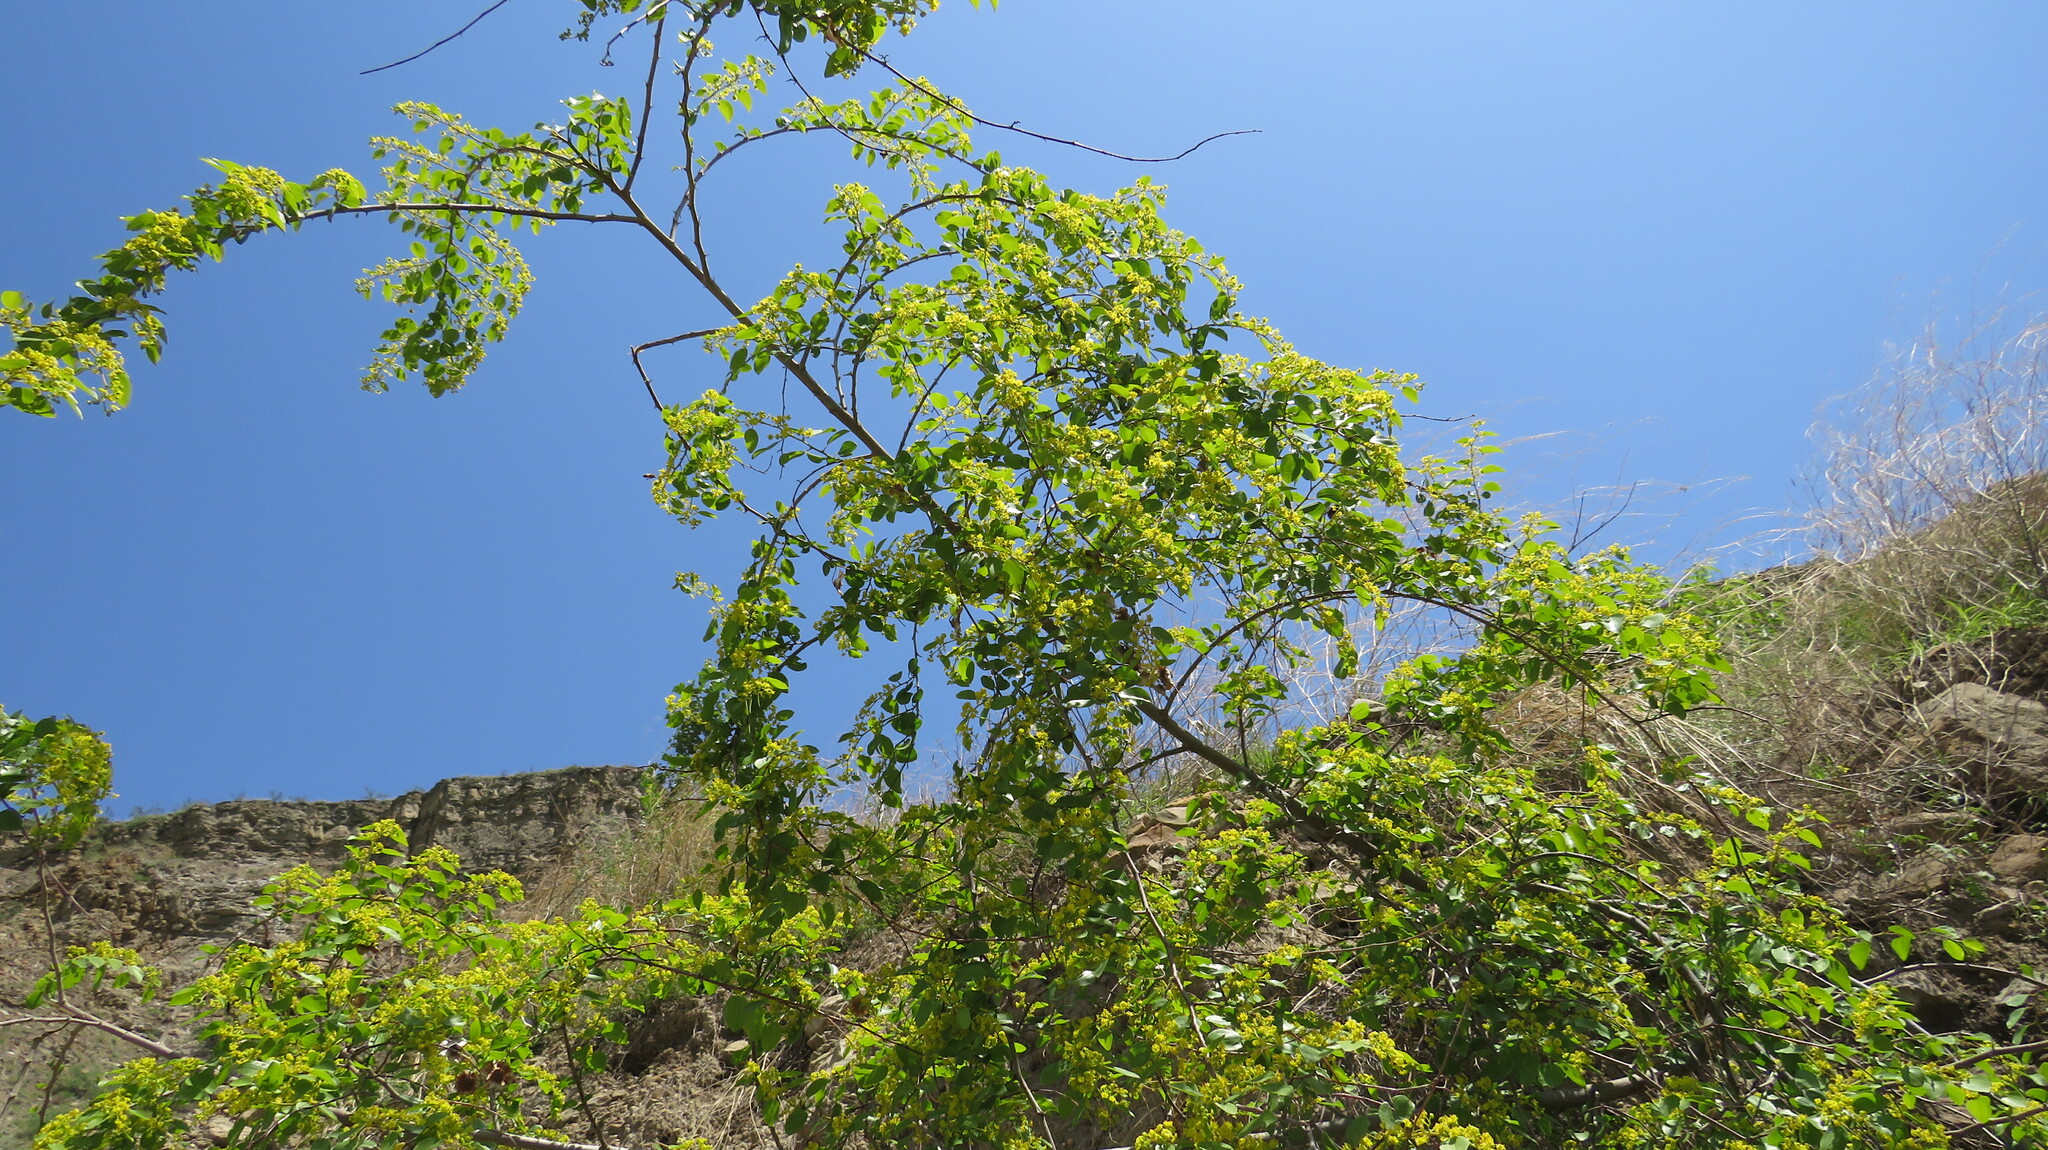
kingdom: Plantae
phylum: Tracheophyta
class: Magnoliopsida
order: Rosales
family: Rhamnaceae
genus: Paliurus
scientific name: Paliurus spina-christi
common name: Jeruselem thorn
